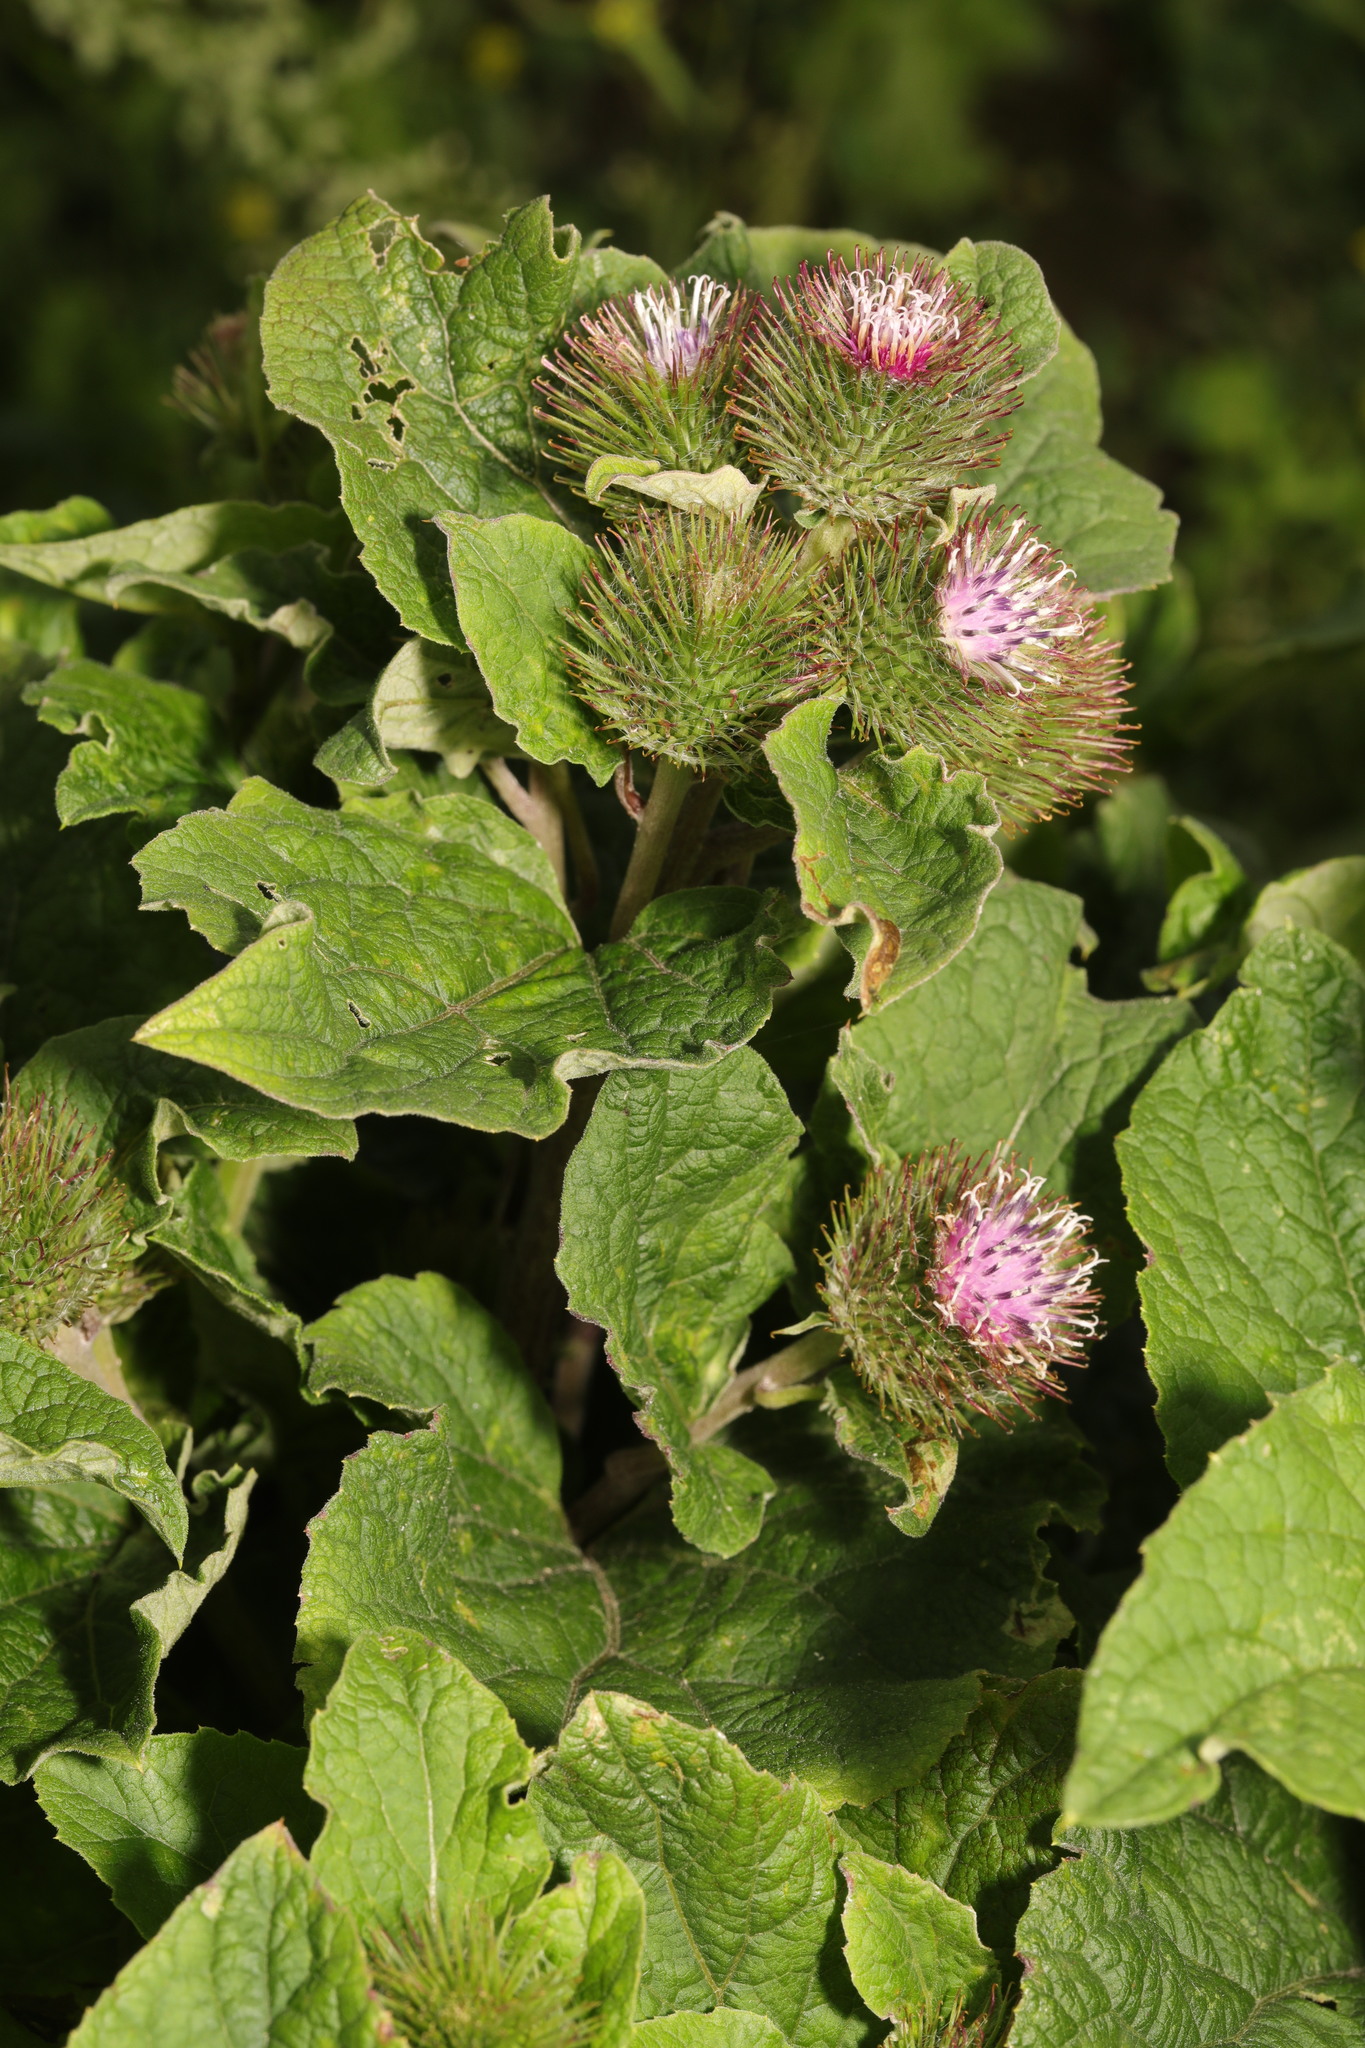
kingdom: Plantae
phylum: Tracheophyta
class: Magnoliopsida
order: Asterales
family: Asteraceae
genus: Arctium
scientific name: Arctium minus
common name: Lesser burdock
